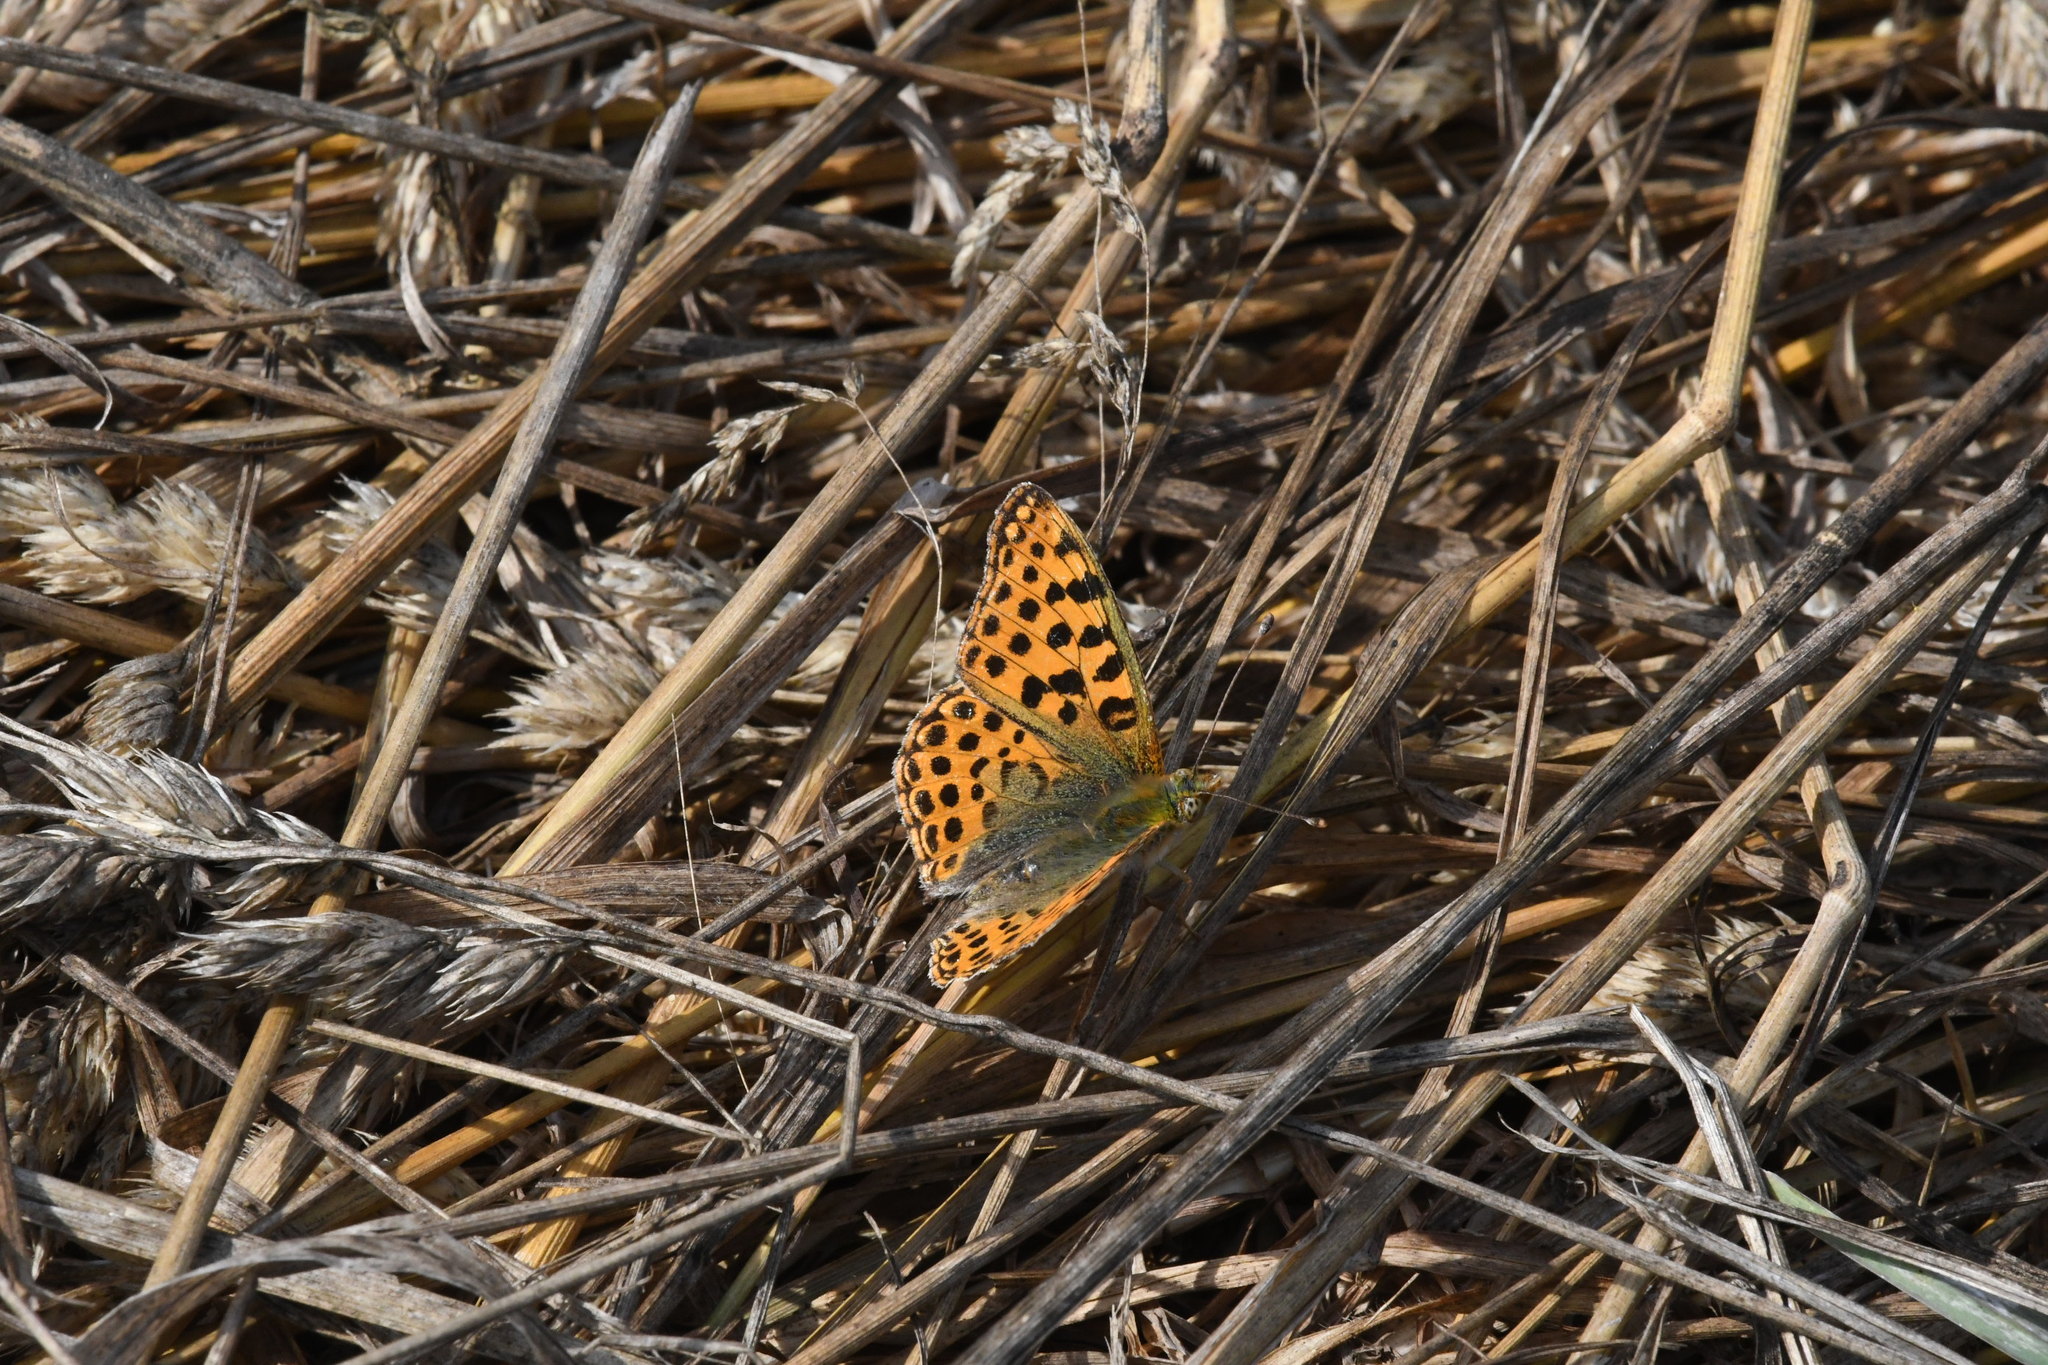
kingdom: Animalia
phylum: Arthropoda
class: Insecta
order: Lepidoptera
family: Nymphalidae
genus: Issoria
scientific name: Issoria lathonia
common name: Queen of spain fritillary
